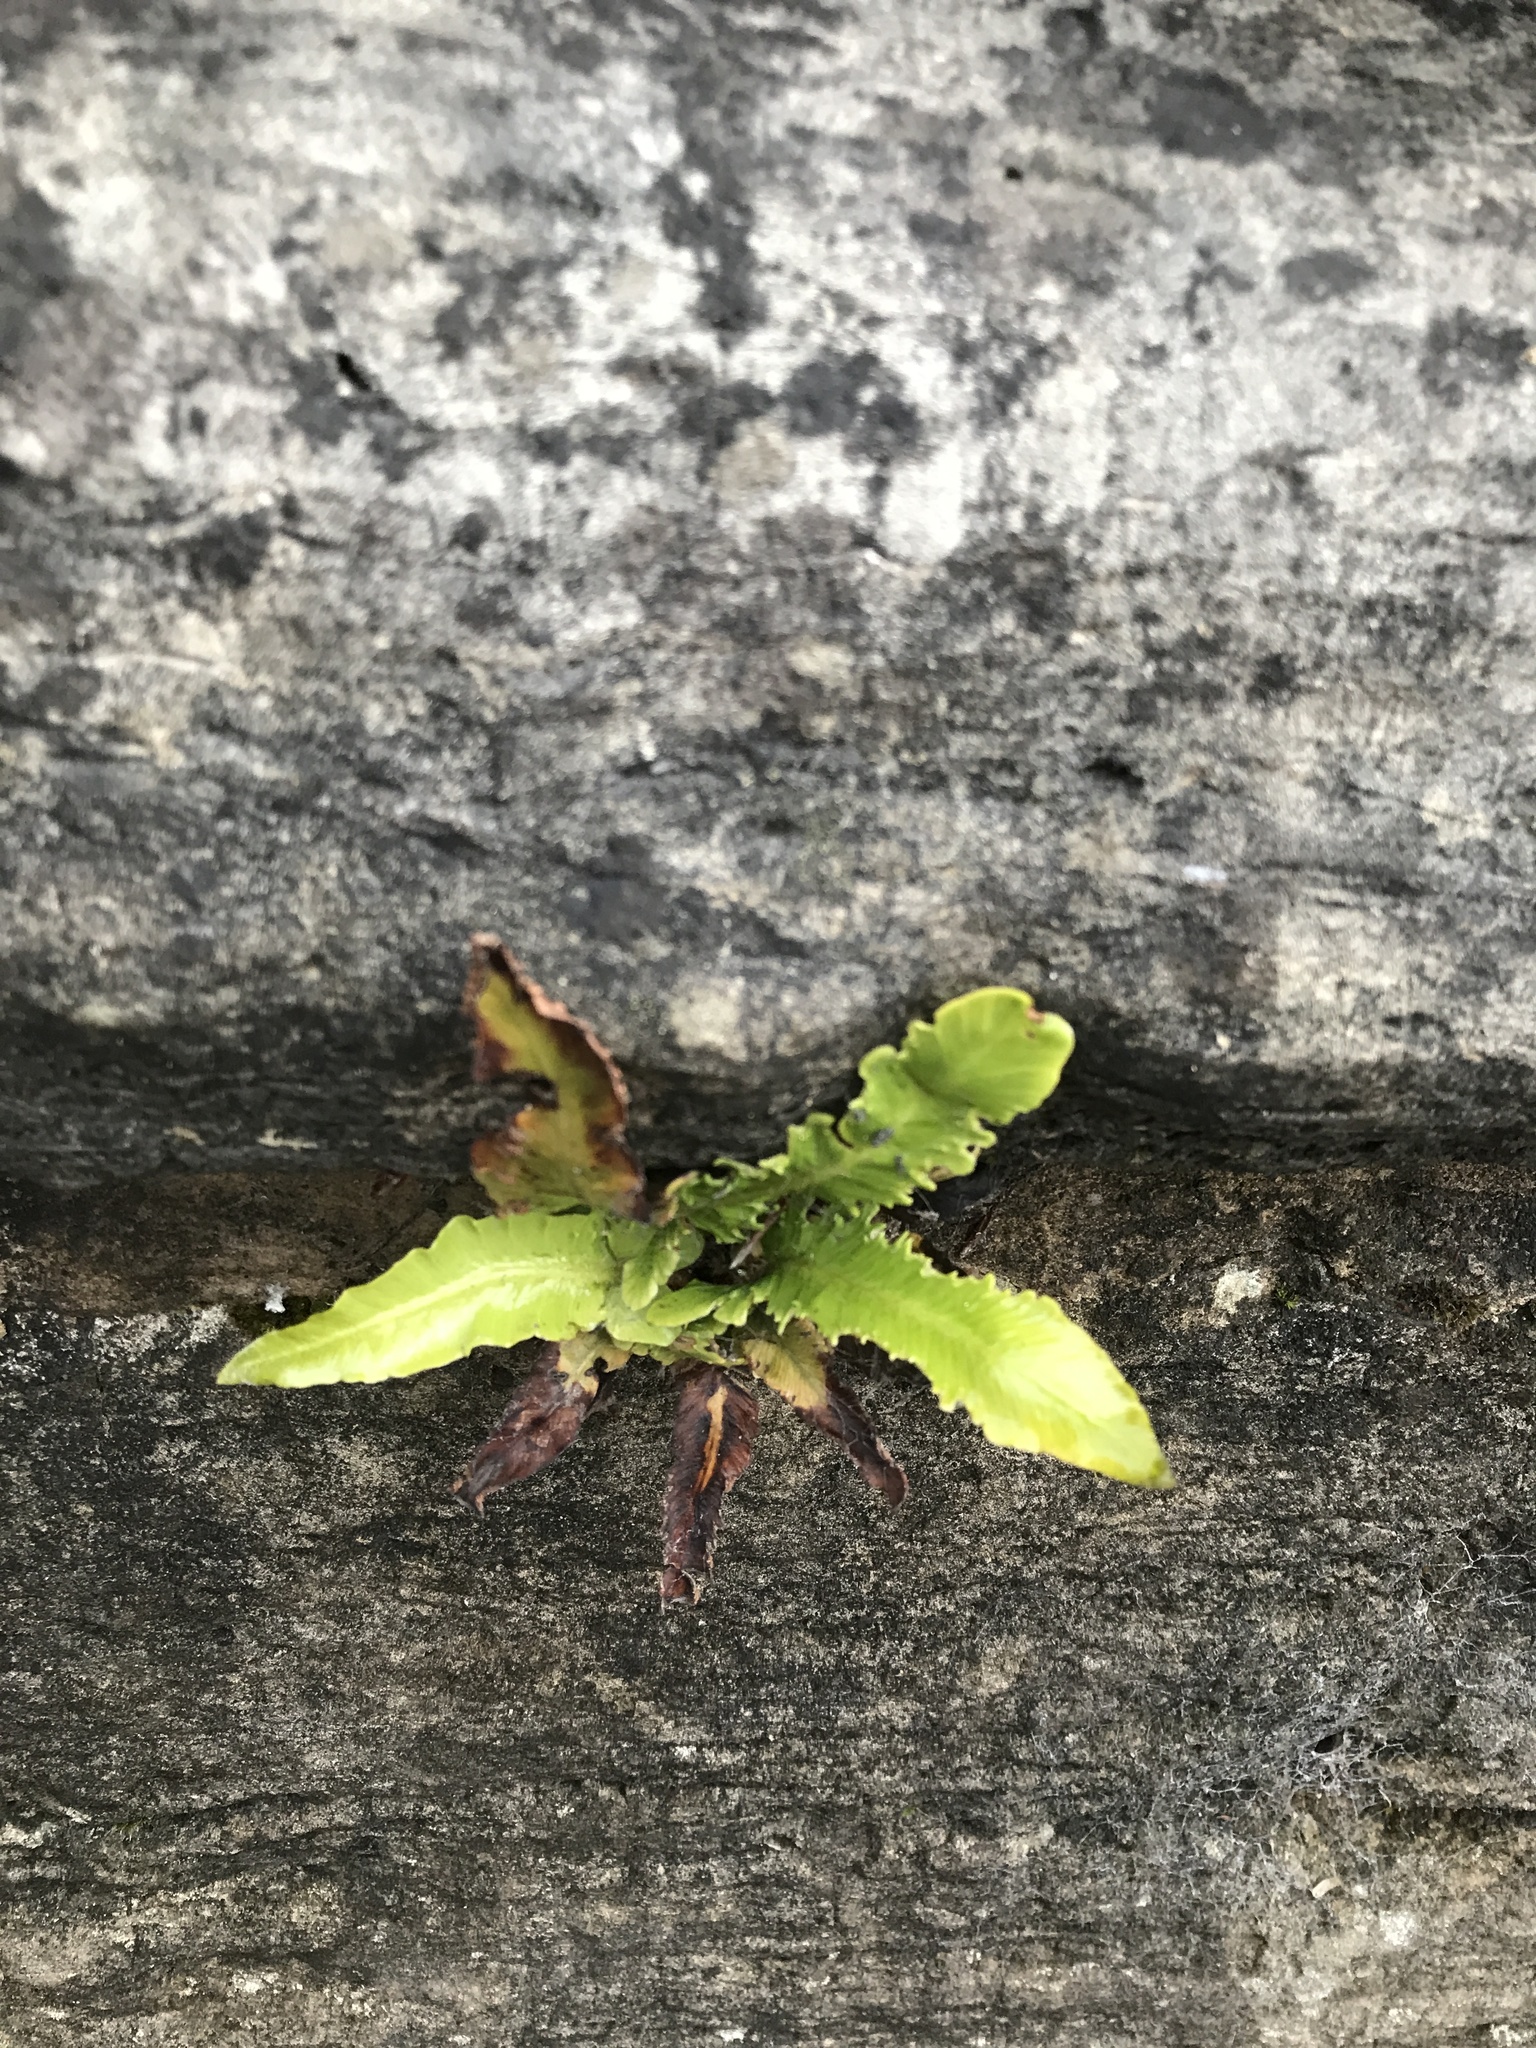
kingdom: Plantae
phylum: Tracheophyta
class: Polypodiopsida
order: Polypodiales
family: Aspleniaceae
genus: Asplenium
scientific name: Asplenium scolopendrium
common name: Hart's-tongue fern
